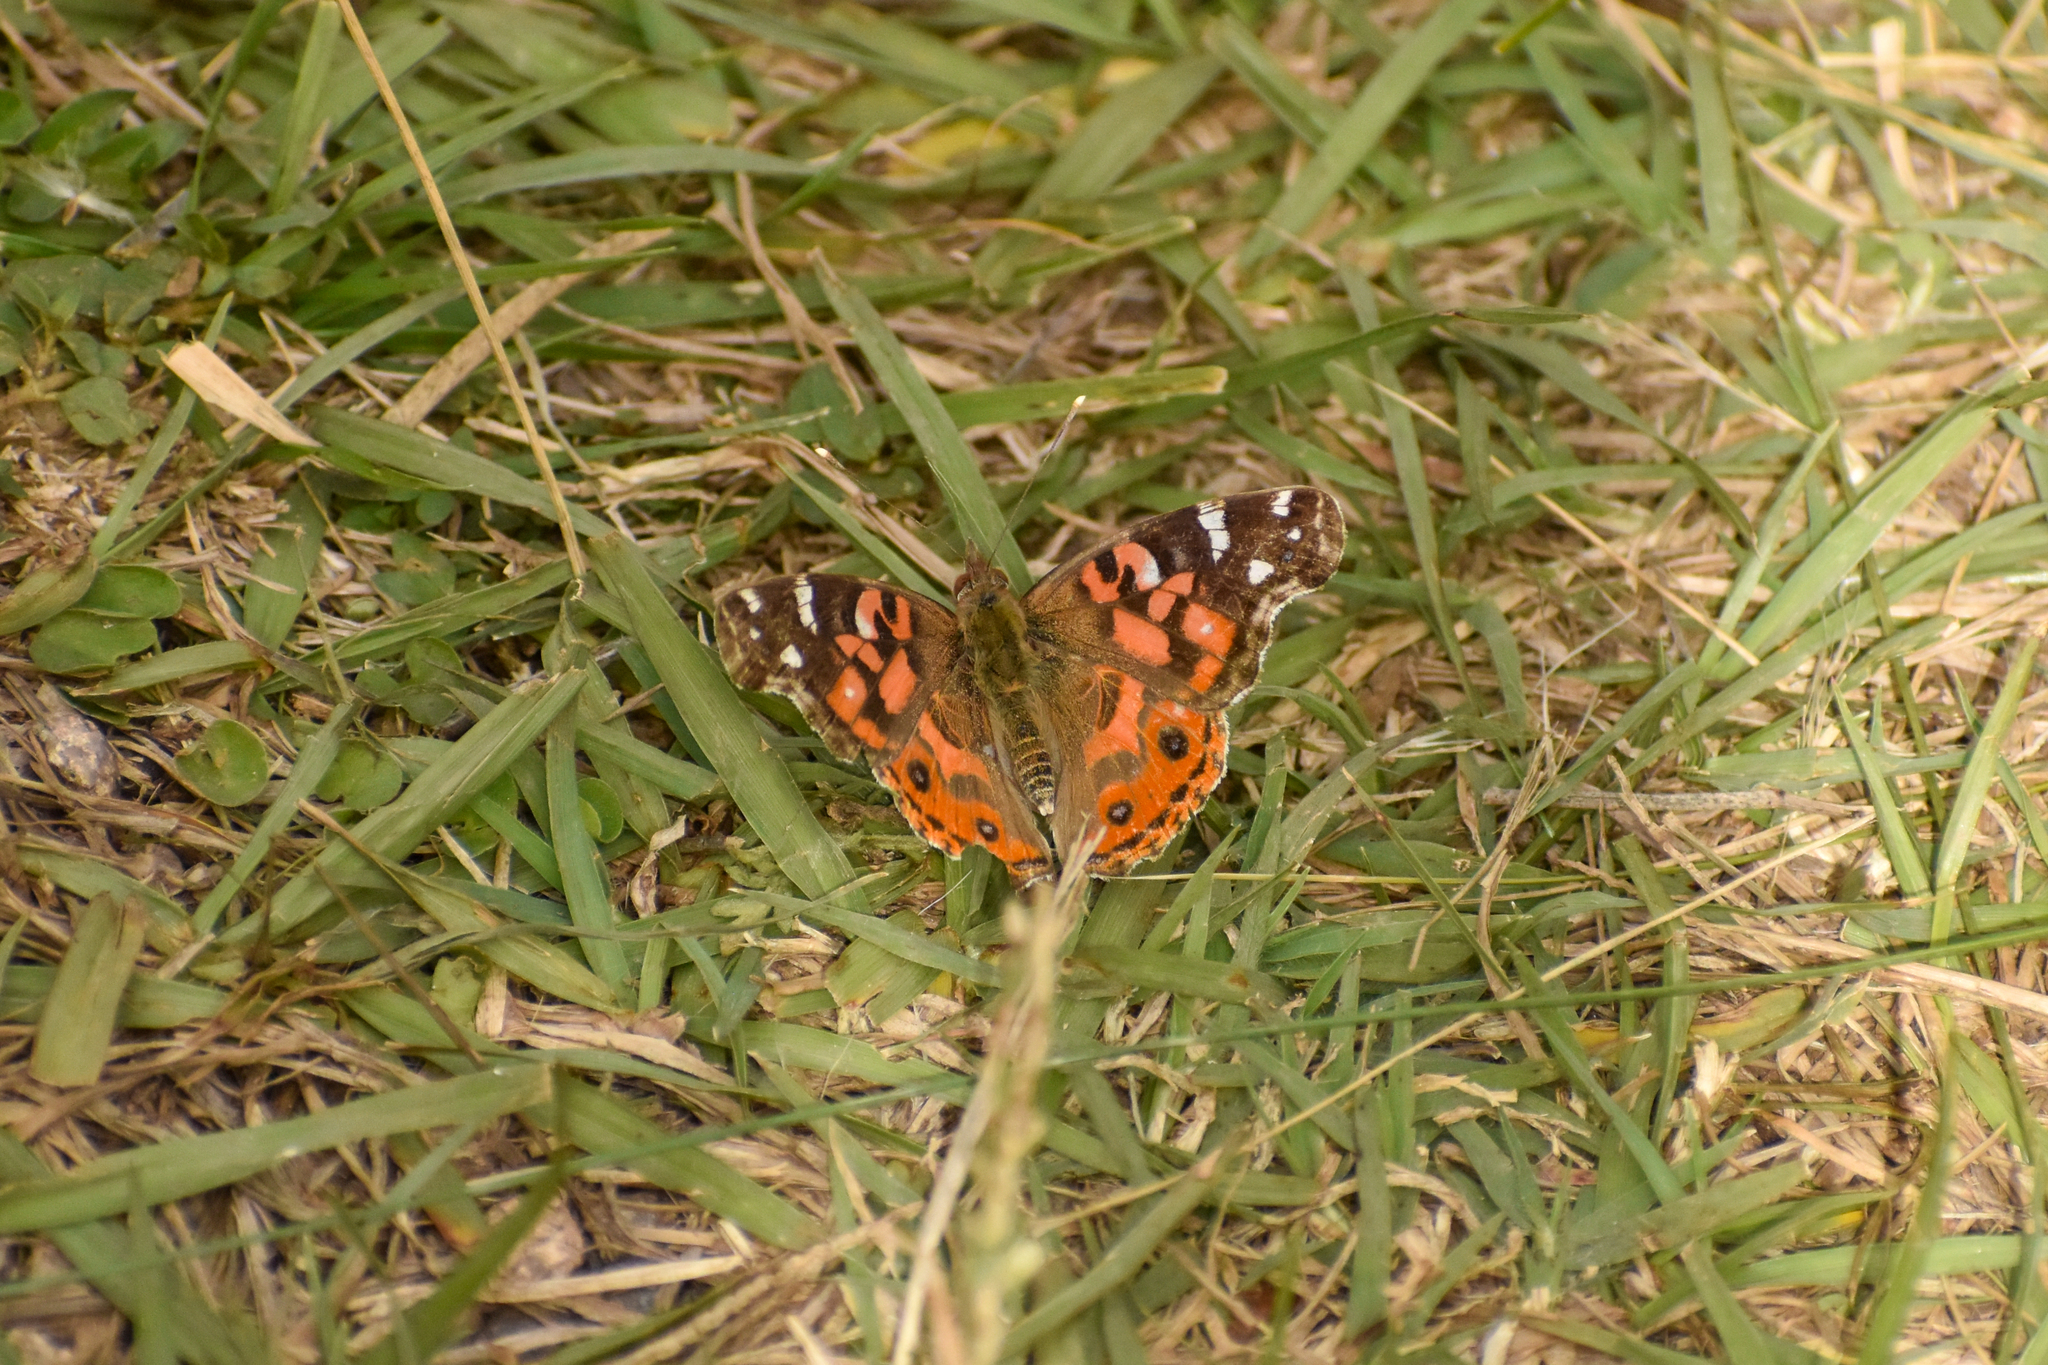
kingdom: Animalia
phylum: Arthropoda
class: Insecta
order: Lepidoptera
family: Nymphalidae
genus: Vanessa
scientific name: Vanessa braziliensis
